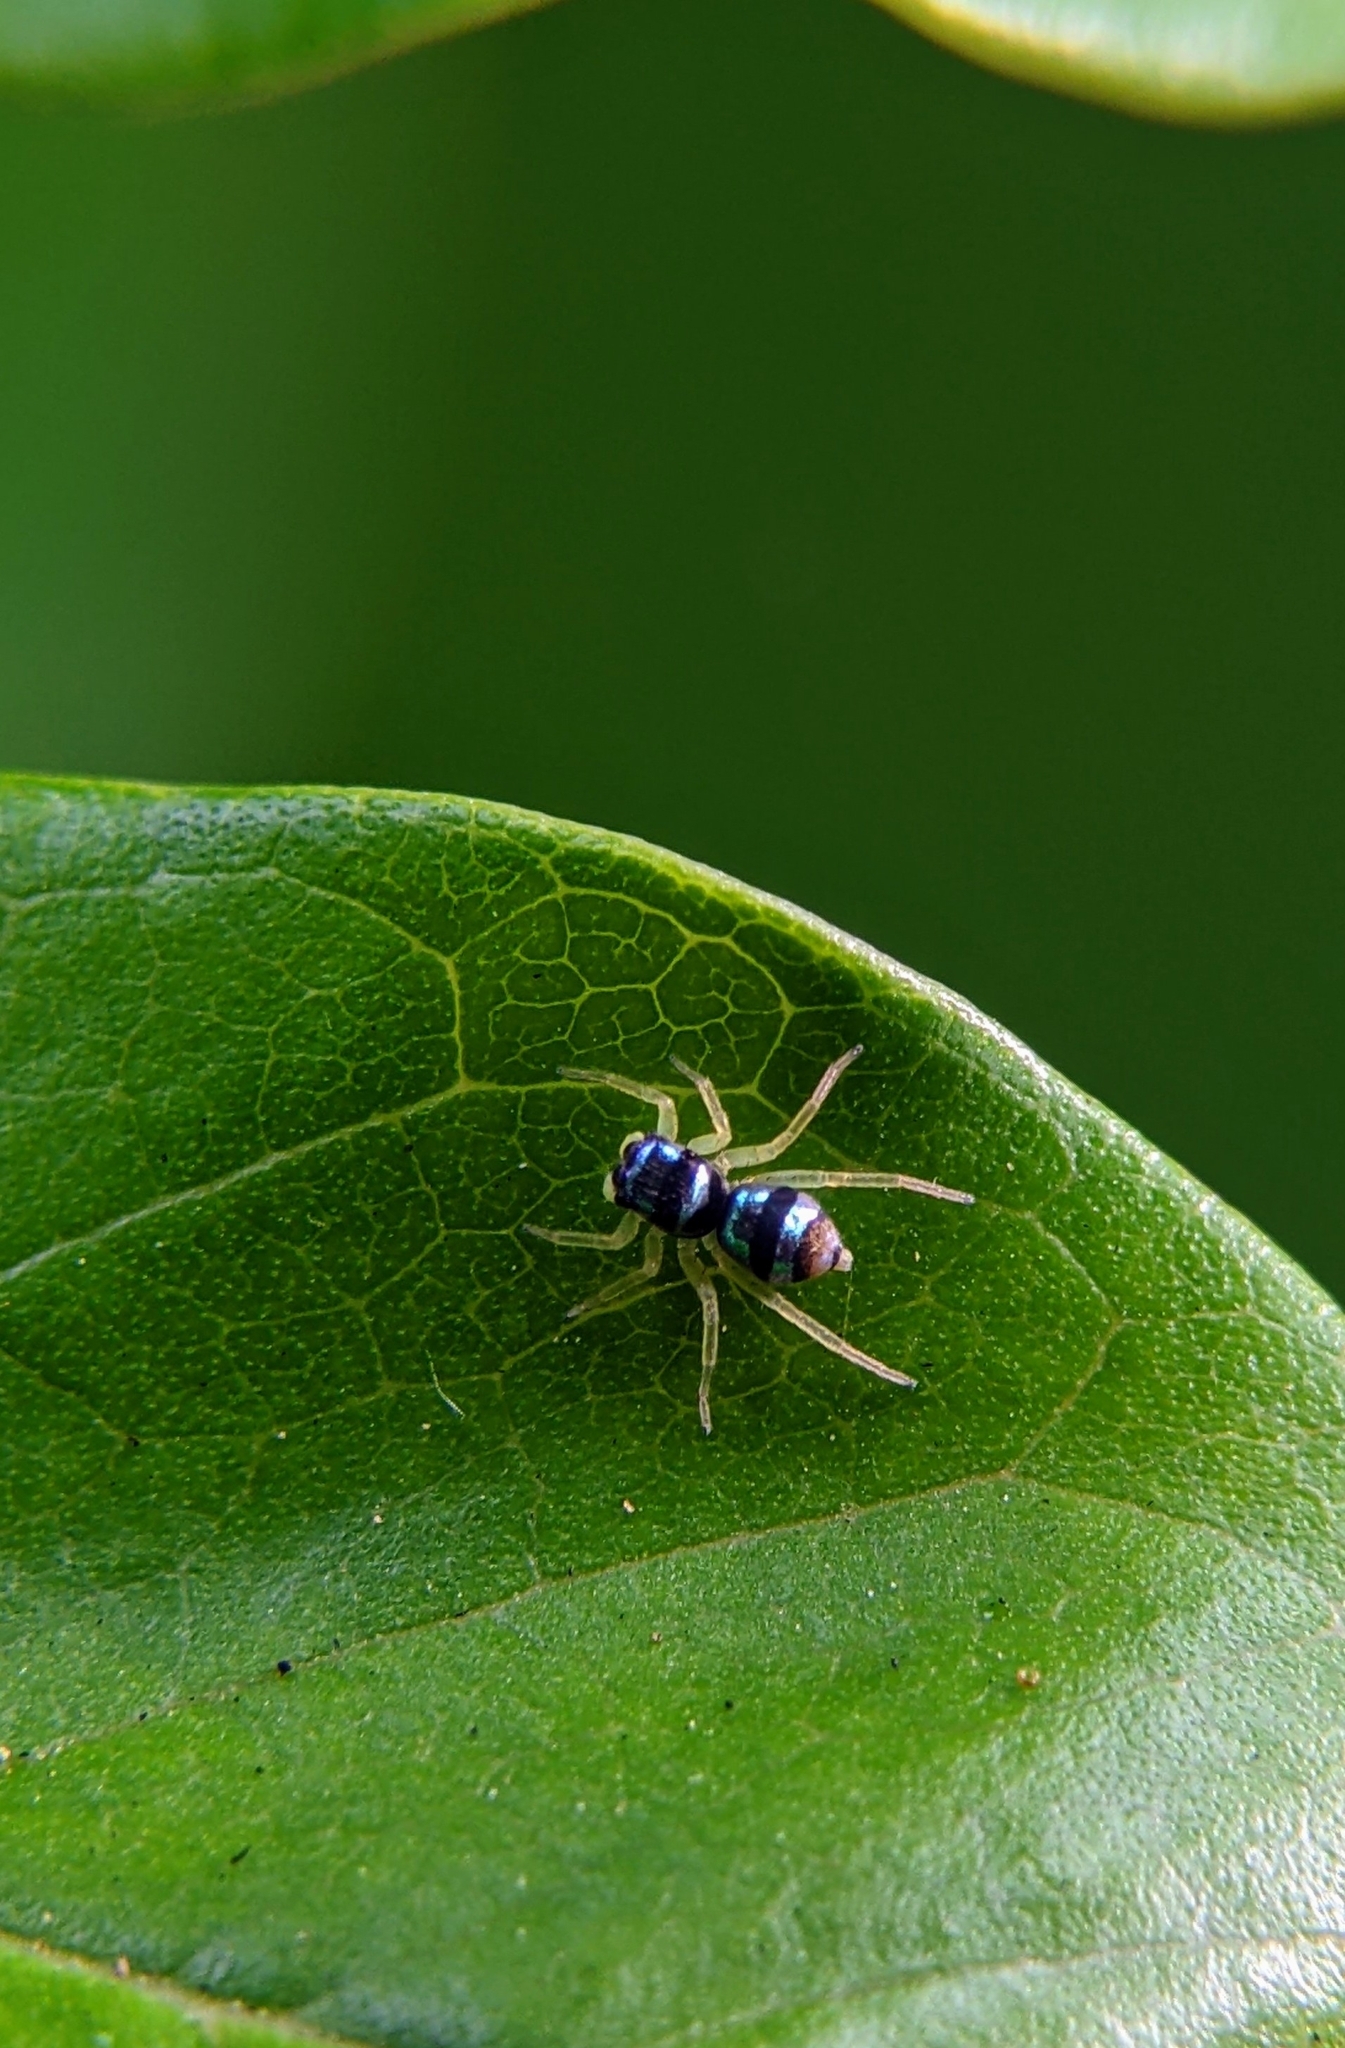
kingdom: Animalia
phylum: Arthropoda
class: Arachnida
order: Araneae
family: Salticidae
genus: Phintella
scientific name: Phintella vittata
